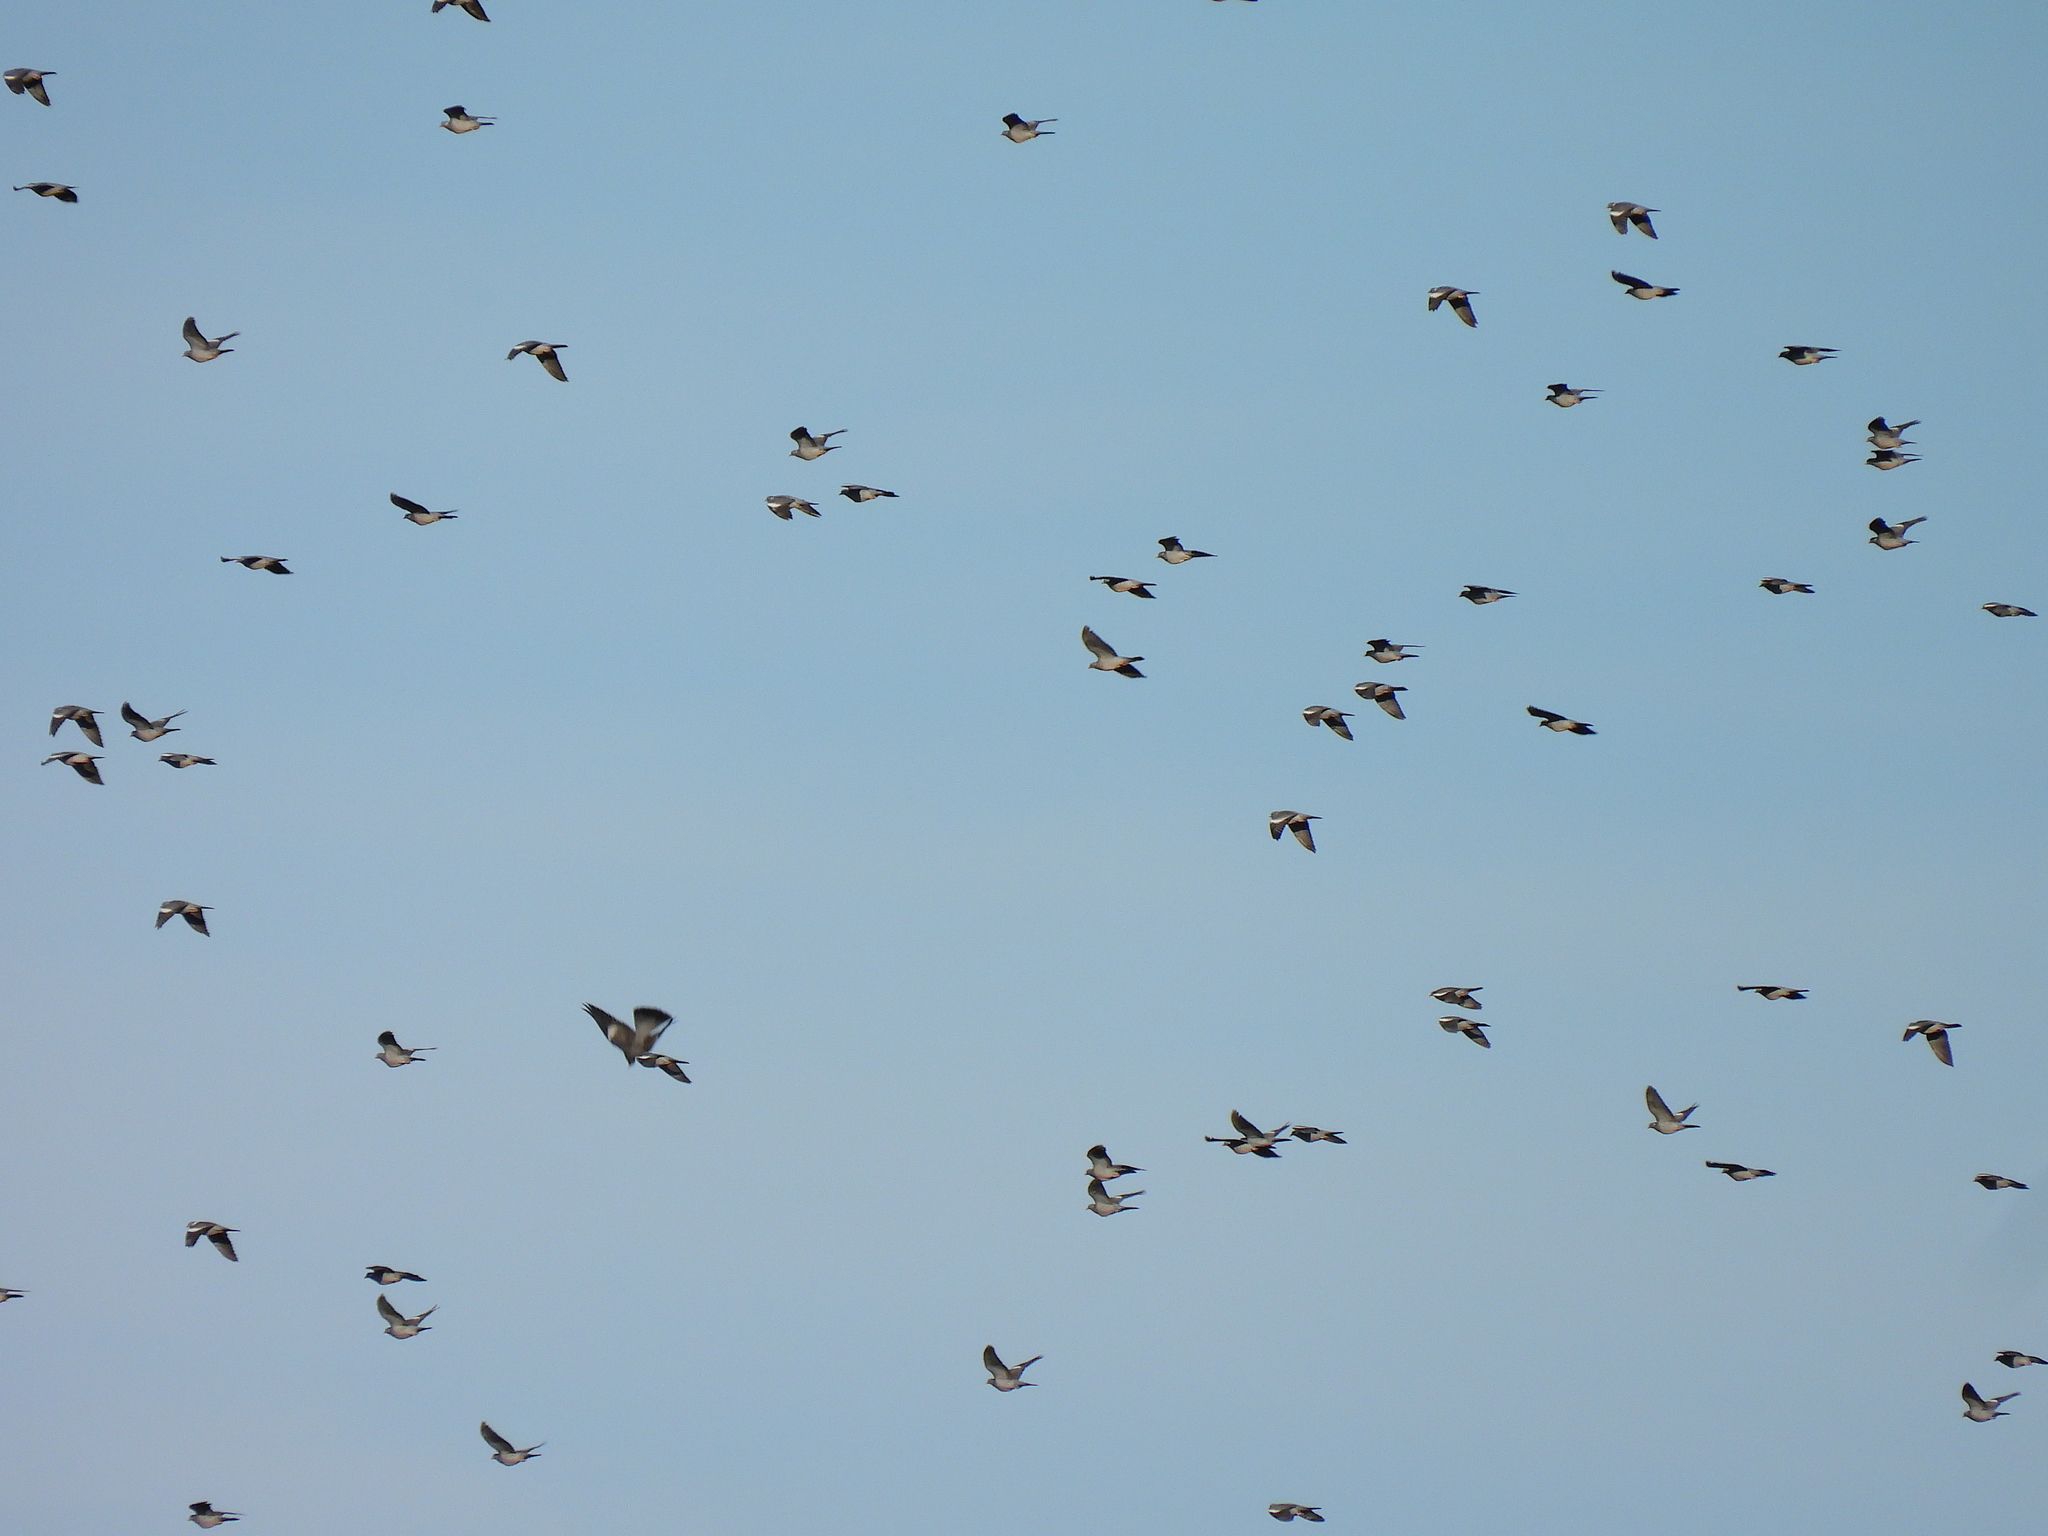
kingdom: Animalia
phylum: Chordata
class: Aves
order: Columbiformes
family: Columbidae
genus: Columba
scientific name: Columba palumbus
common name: Common wood pigeon
